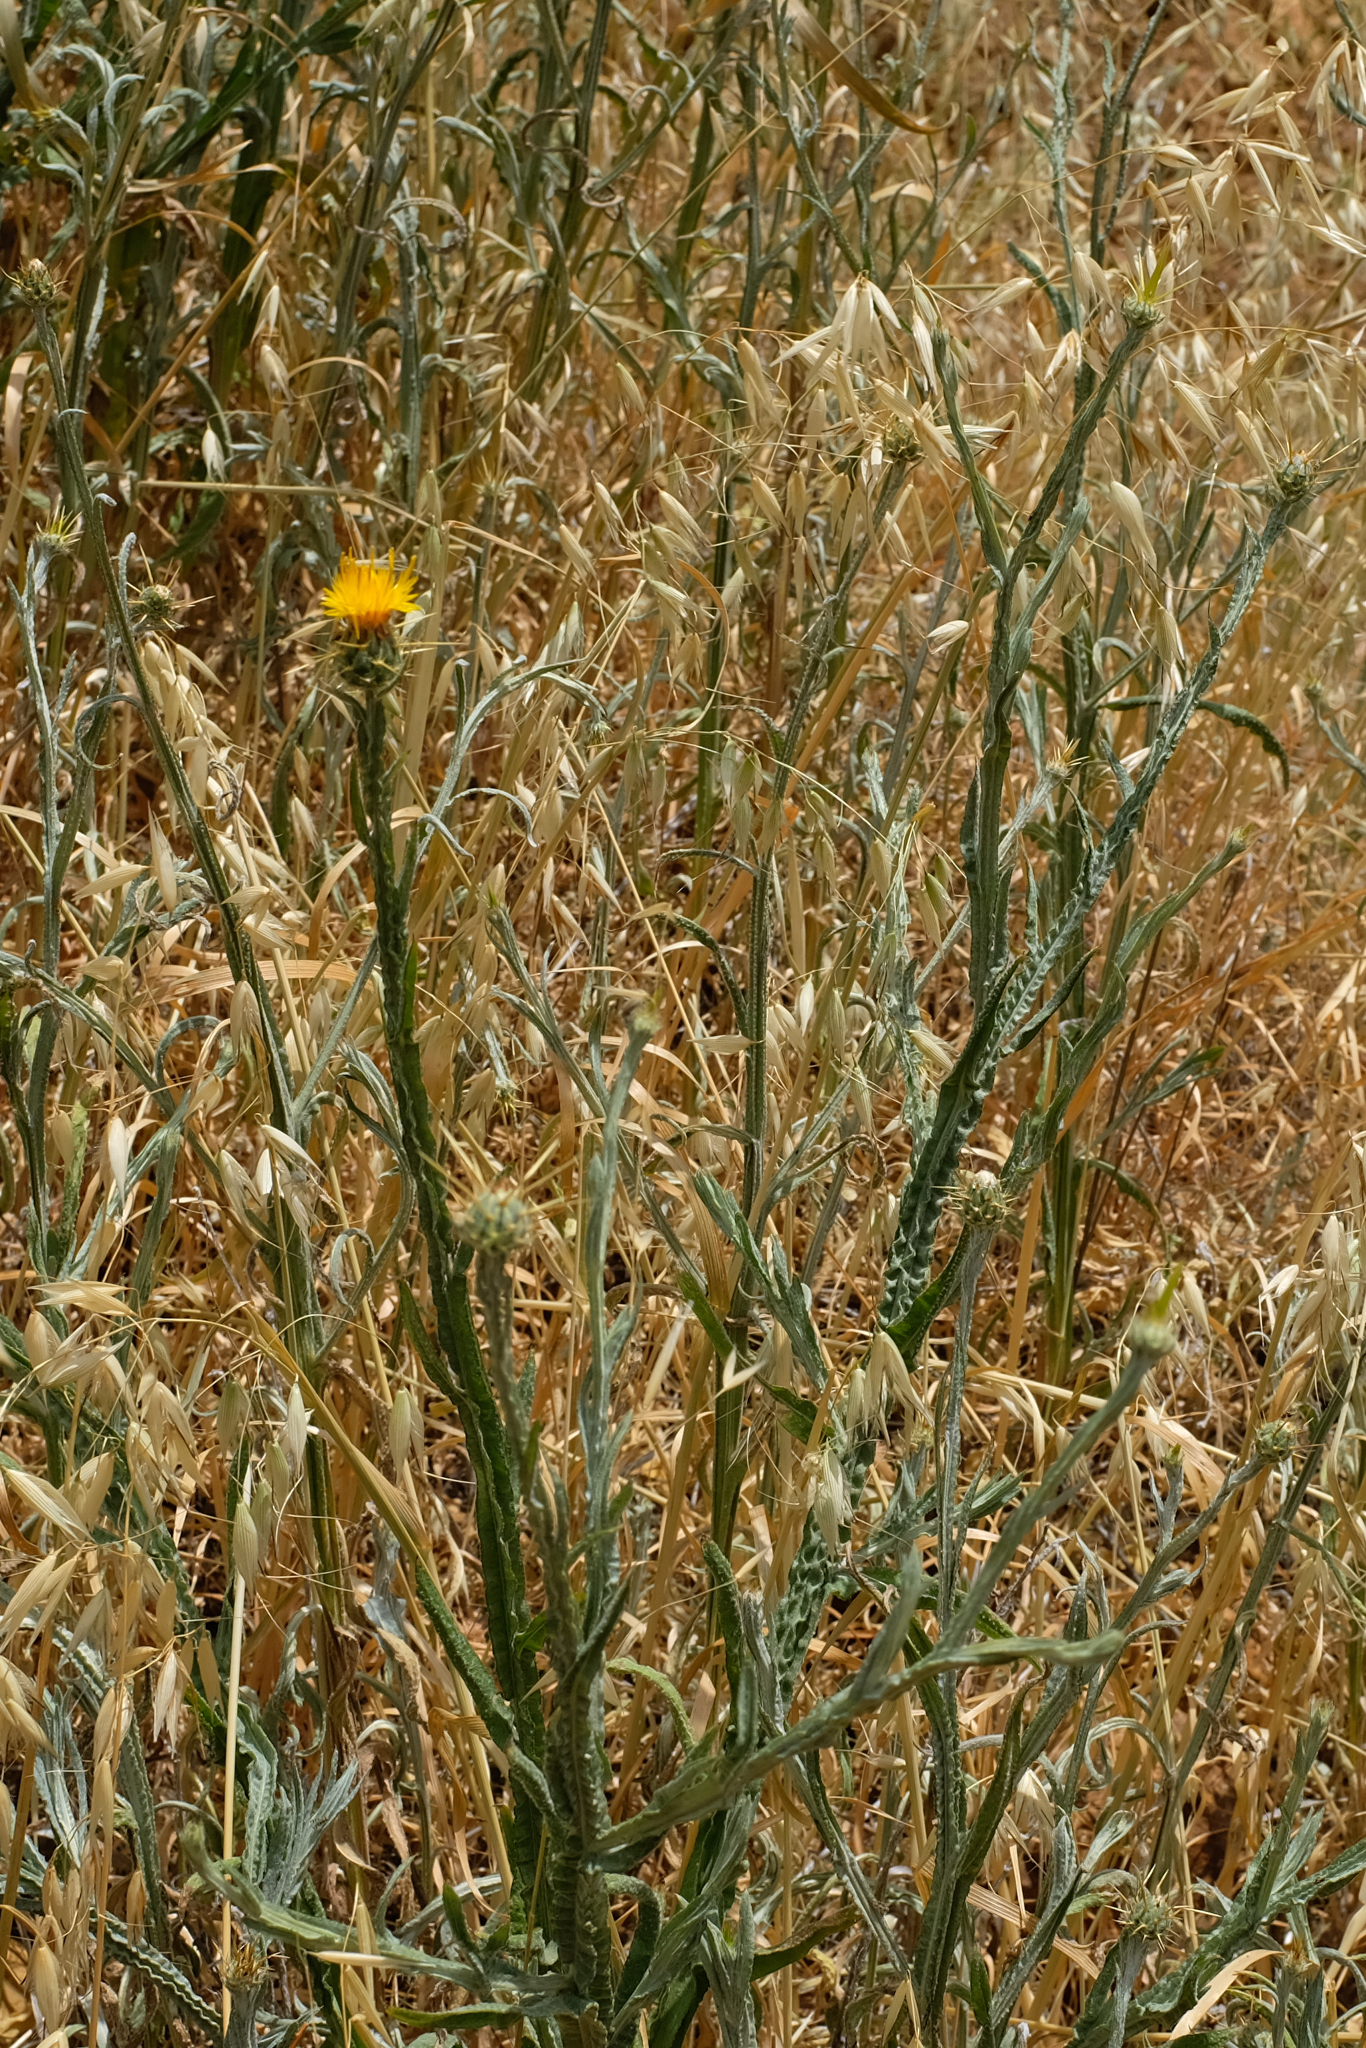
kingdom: Plantae
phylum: Tracheophyta
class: Magnoliopsida
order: Asterales
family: Asteraceae
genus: Centaurea
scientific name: Centaurea solstitialis
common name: Yellow star-thistle
